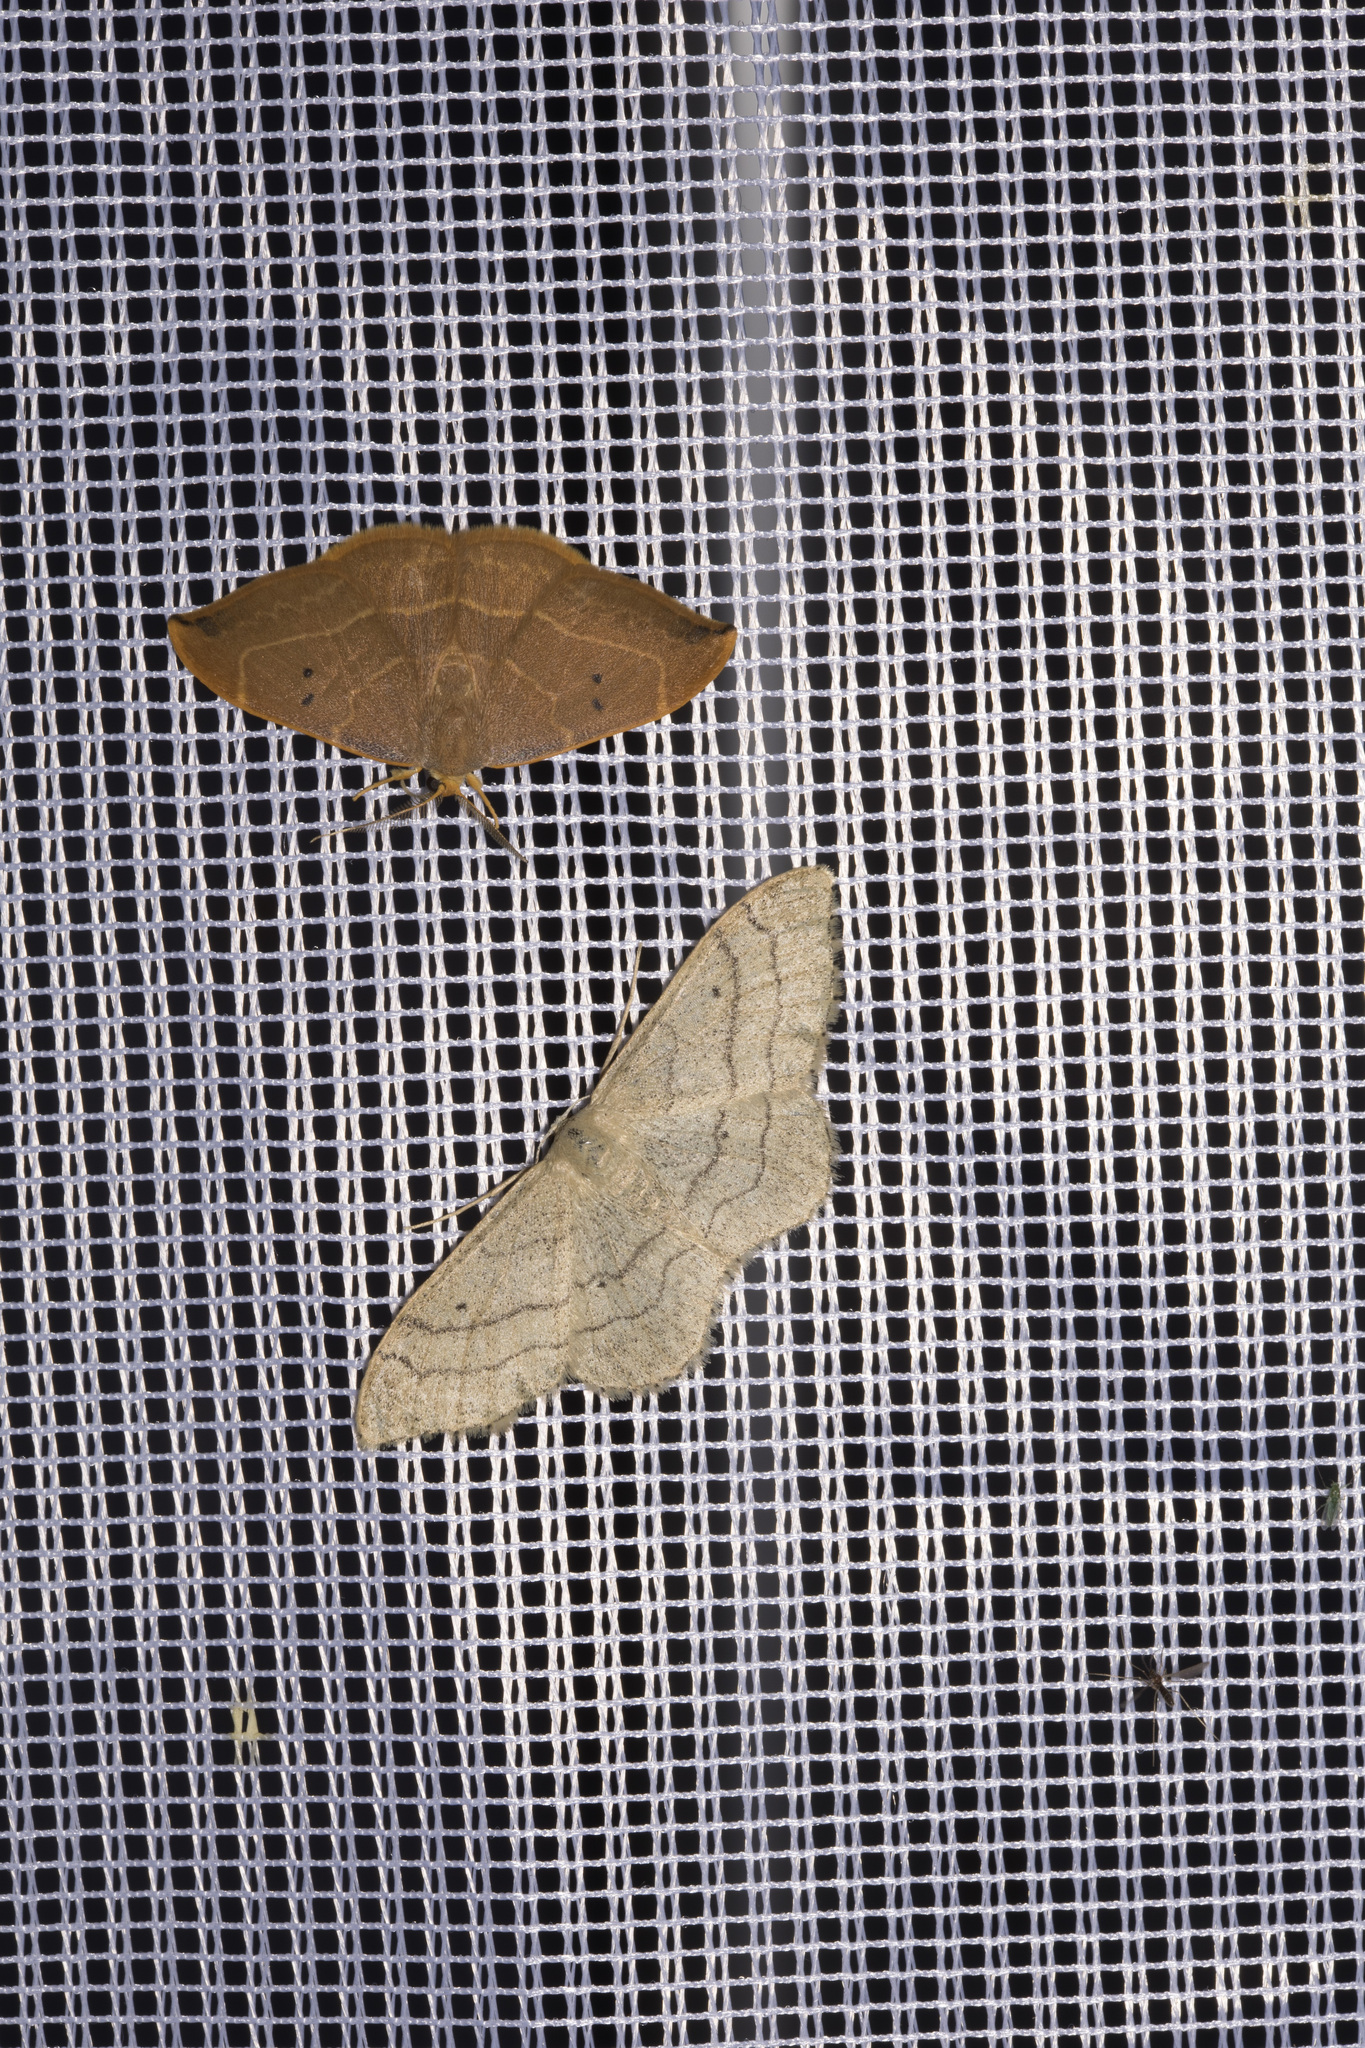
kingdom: Animalia
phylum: Arthropoda
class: Insecta
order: Lepidoptera
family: Drepanidae
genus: Watsonalla
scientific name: Watsonalla binaria
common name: Oak hook-tip
